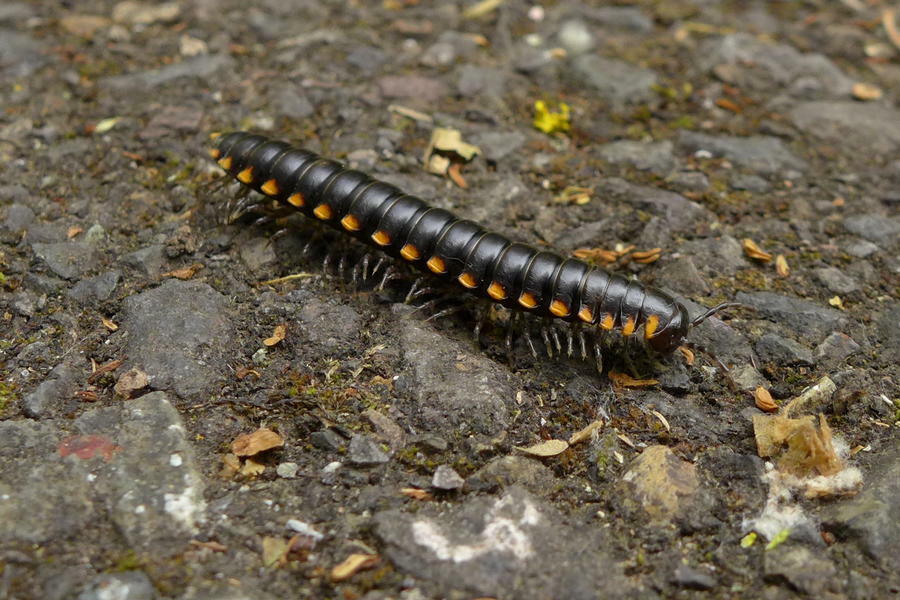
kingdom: Animalia
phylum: Arthropoda
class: Diplopoda
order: Polydesmida
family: Xystodesmidae
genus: Harpaphe
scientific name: Harpaphe haydeniana
